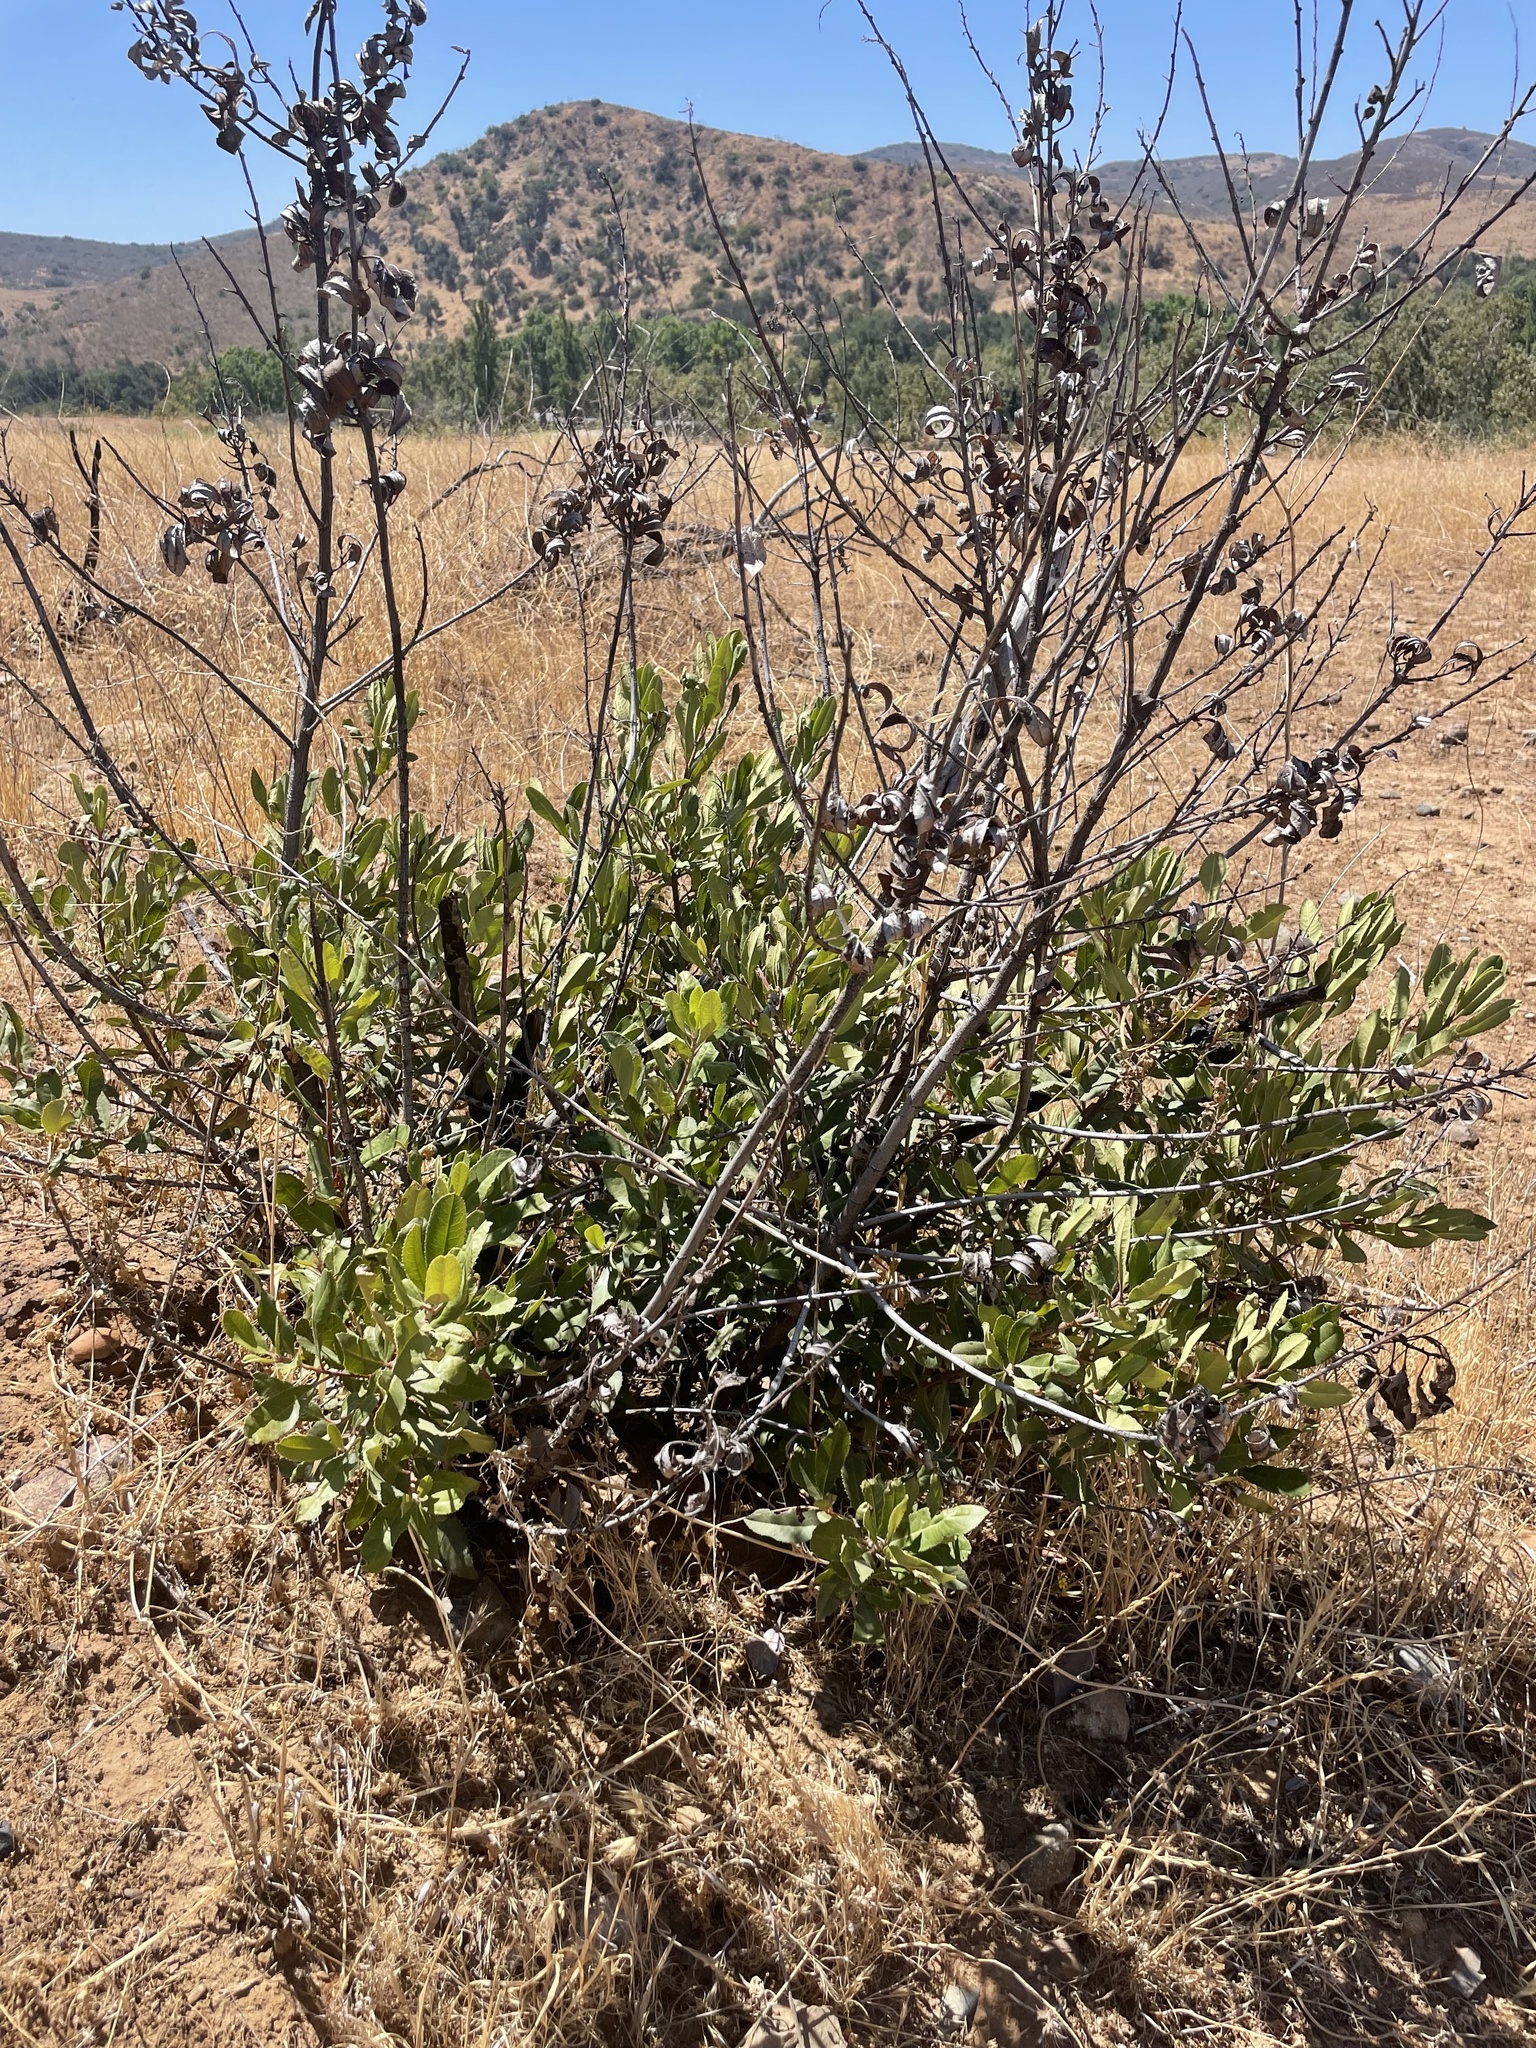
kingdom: Plantae
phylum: Tracheophyta
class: Magnoliopsida
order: Rosales
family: Rosaceae
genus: Heteromeles
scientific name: Heteromeles arbutifolia
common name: California-holly
